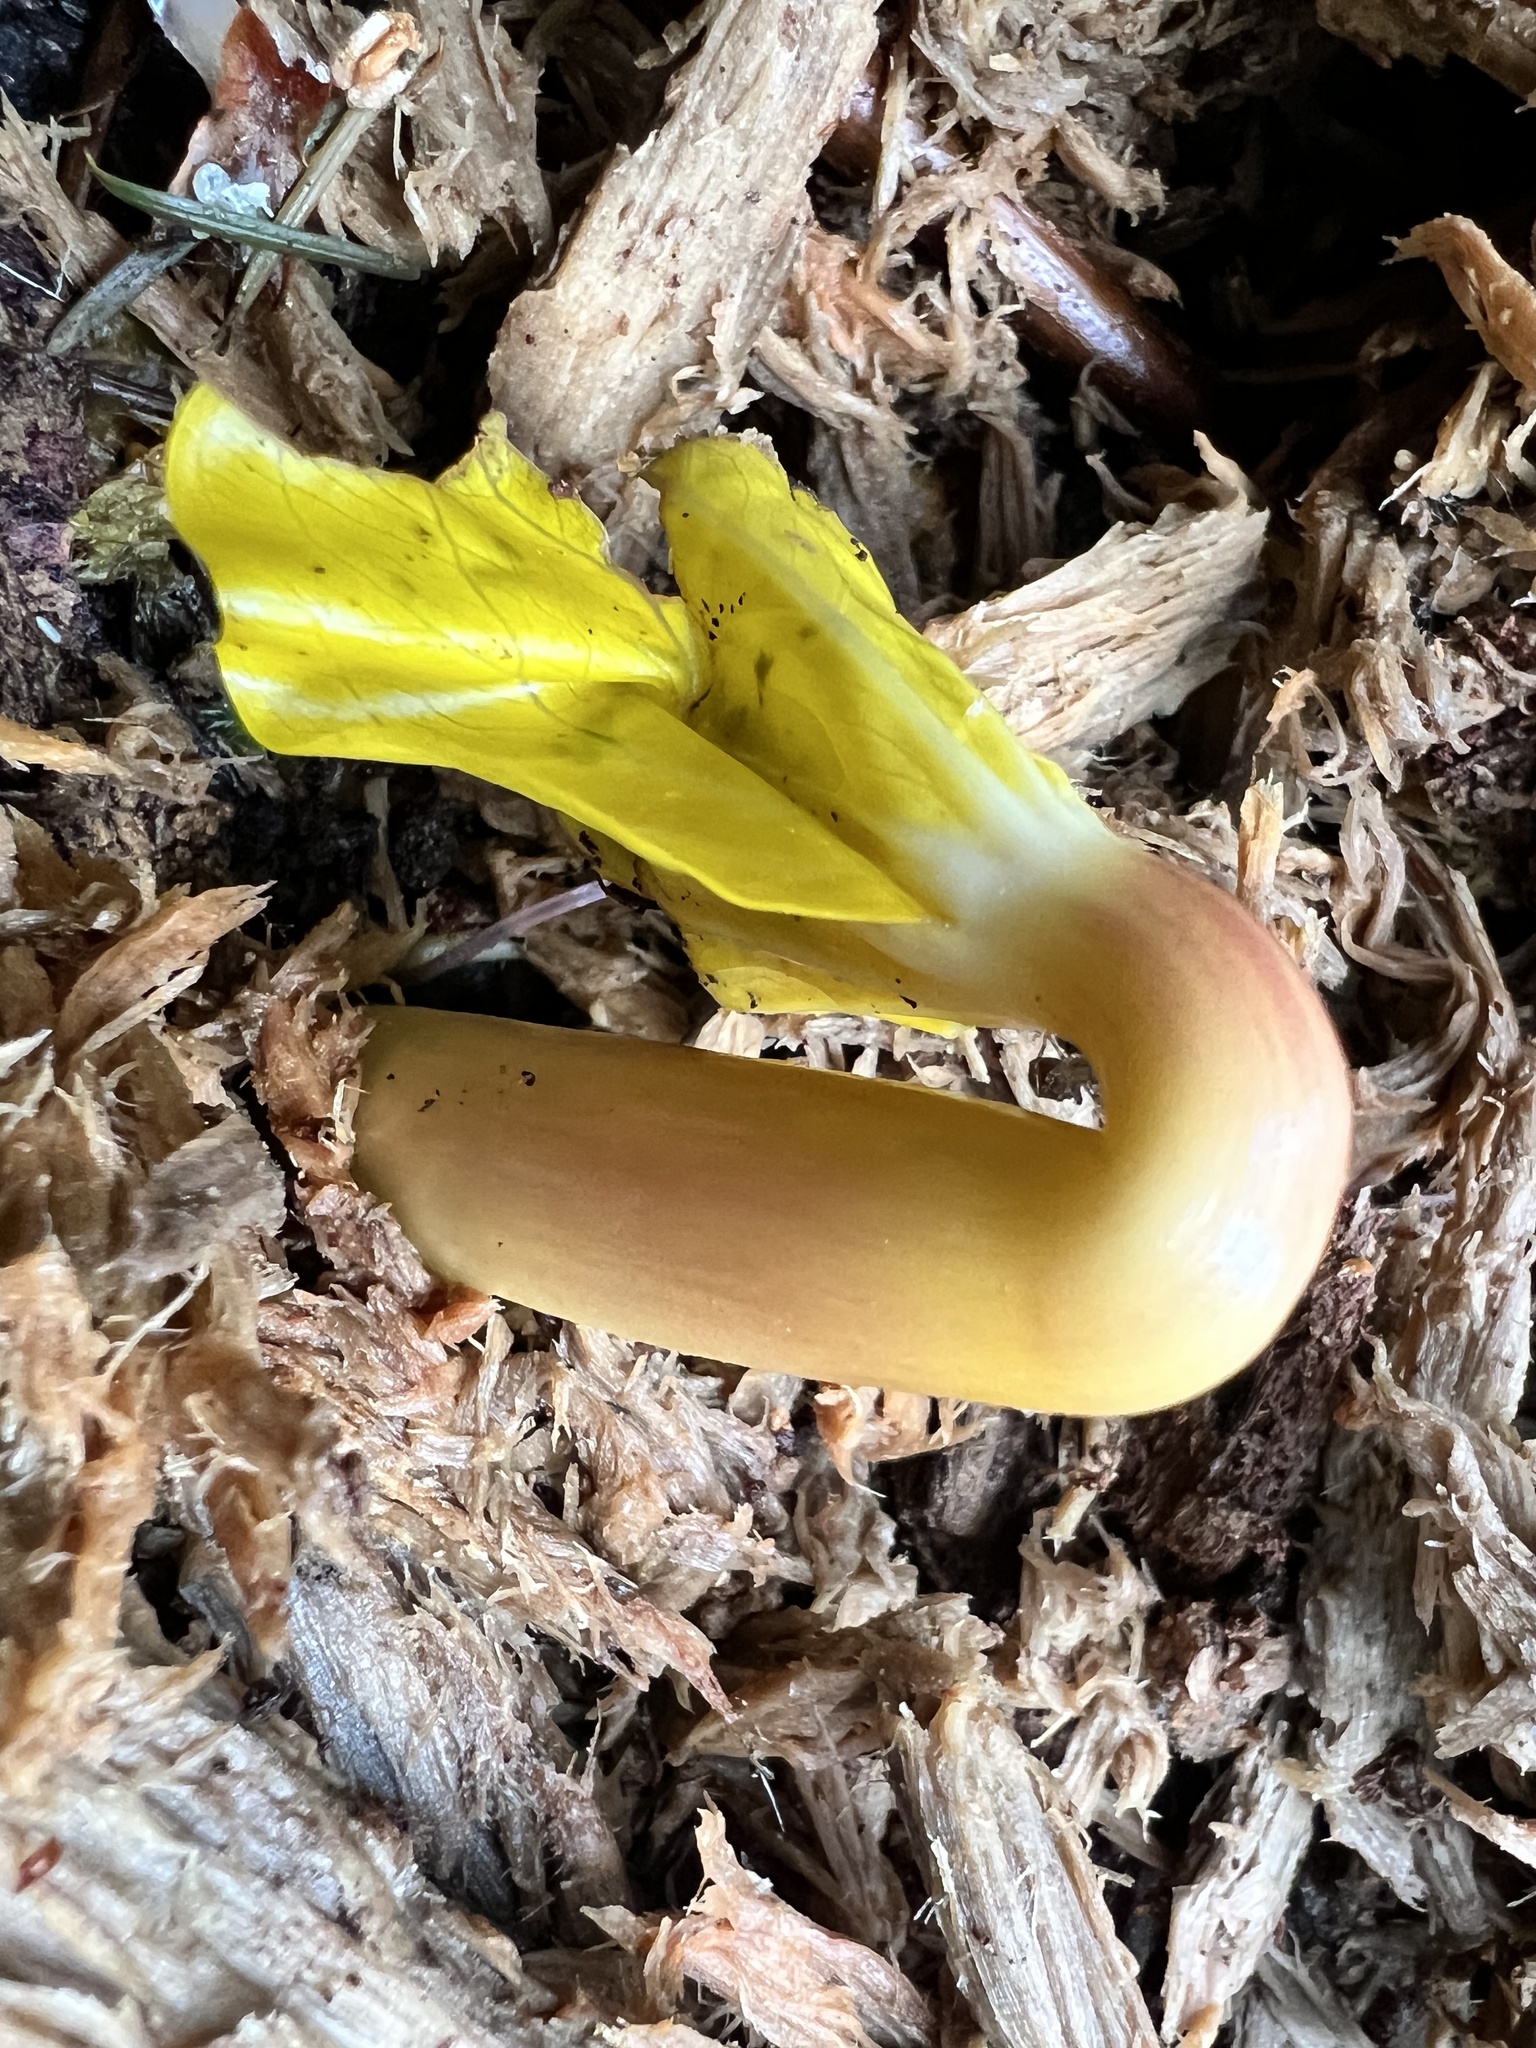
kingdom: Plantae
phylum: Tracheophyta
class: Liliopsida
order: Alismatales
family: Araceae
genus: Lysichiton
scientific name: Lysichiton americanus
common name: American skunk cabbage
